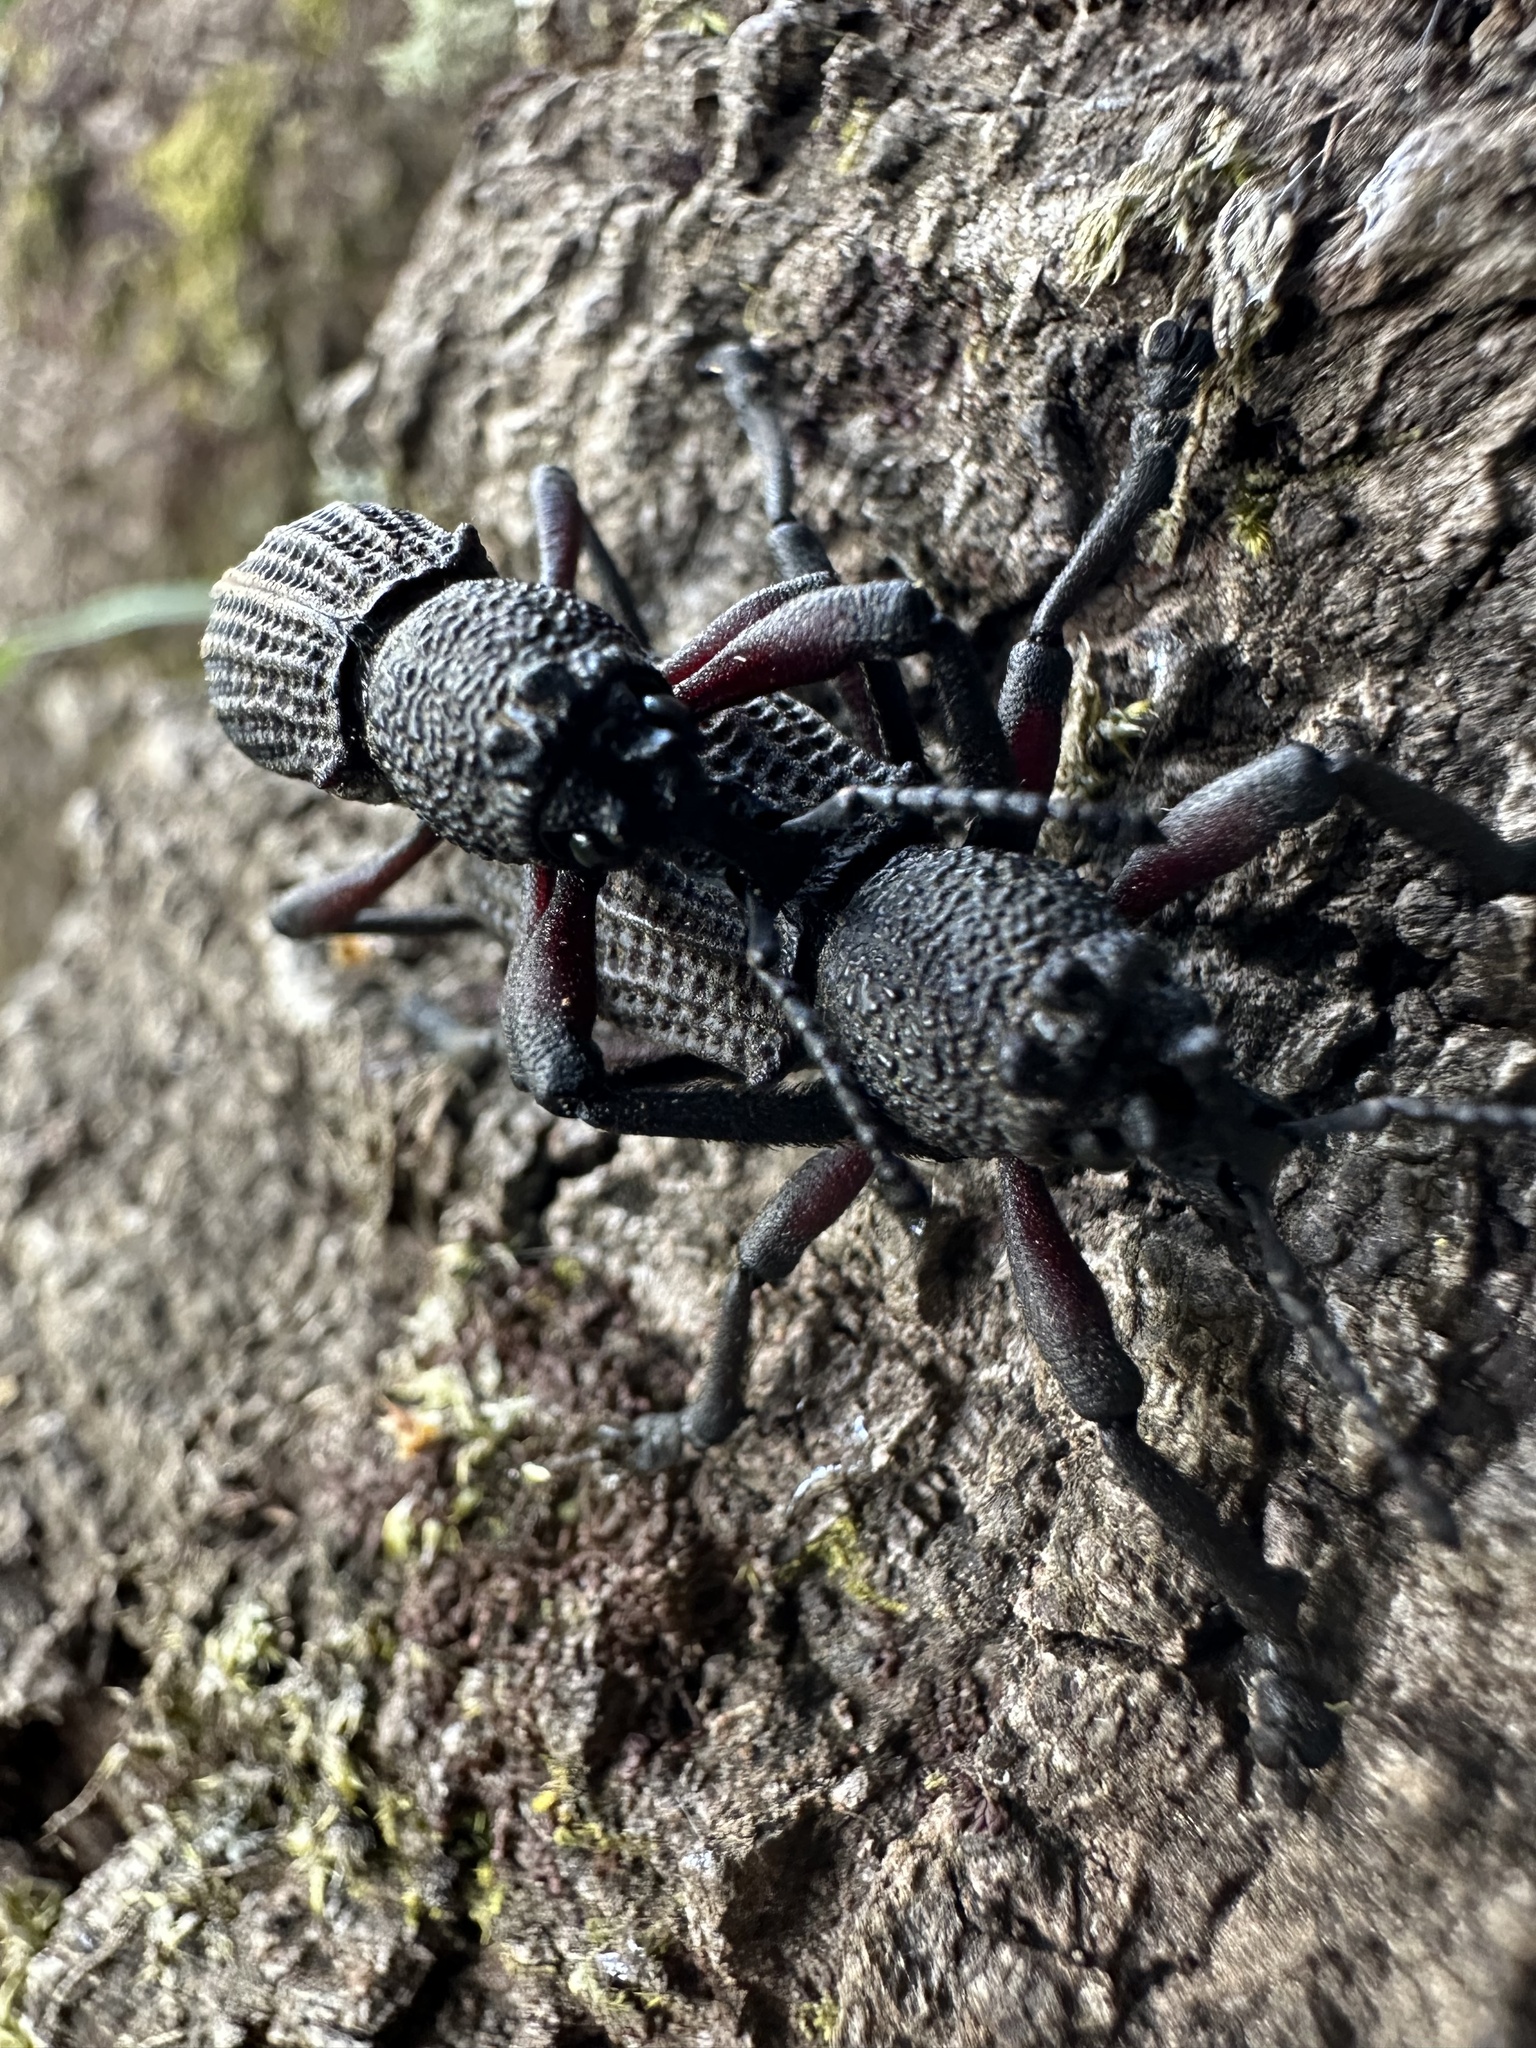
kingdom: Animalia
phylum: Arthropoda
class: Insecta
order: Coleoptera
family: Curculionidae
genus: Aegorhinus
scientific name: Aegorhinus
